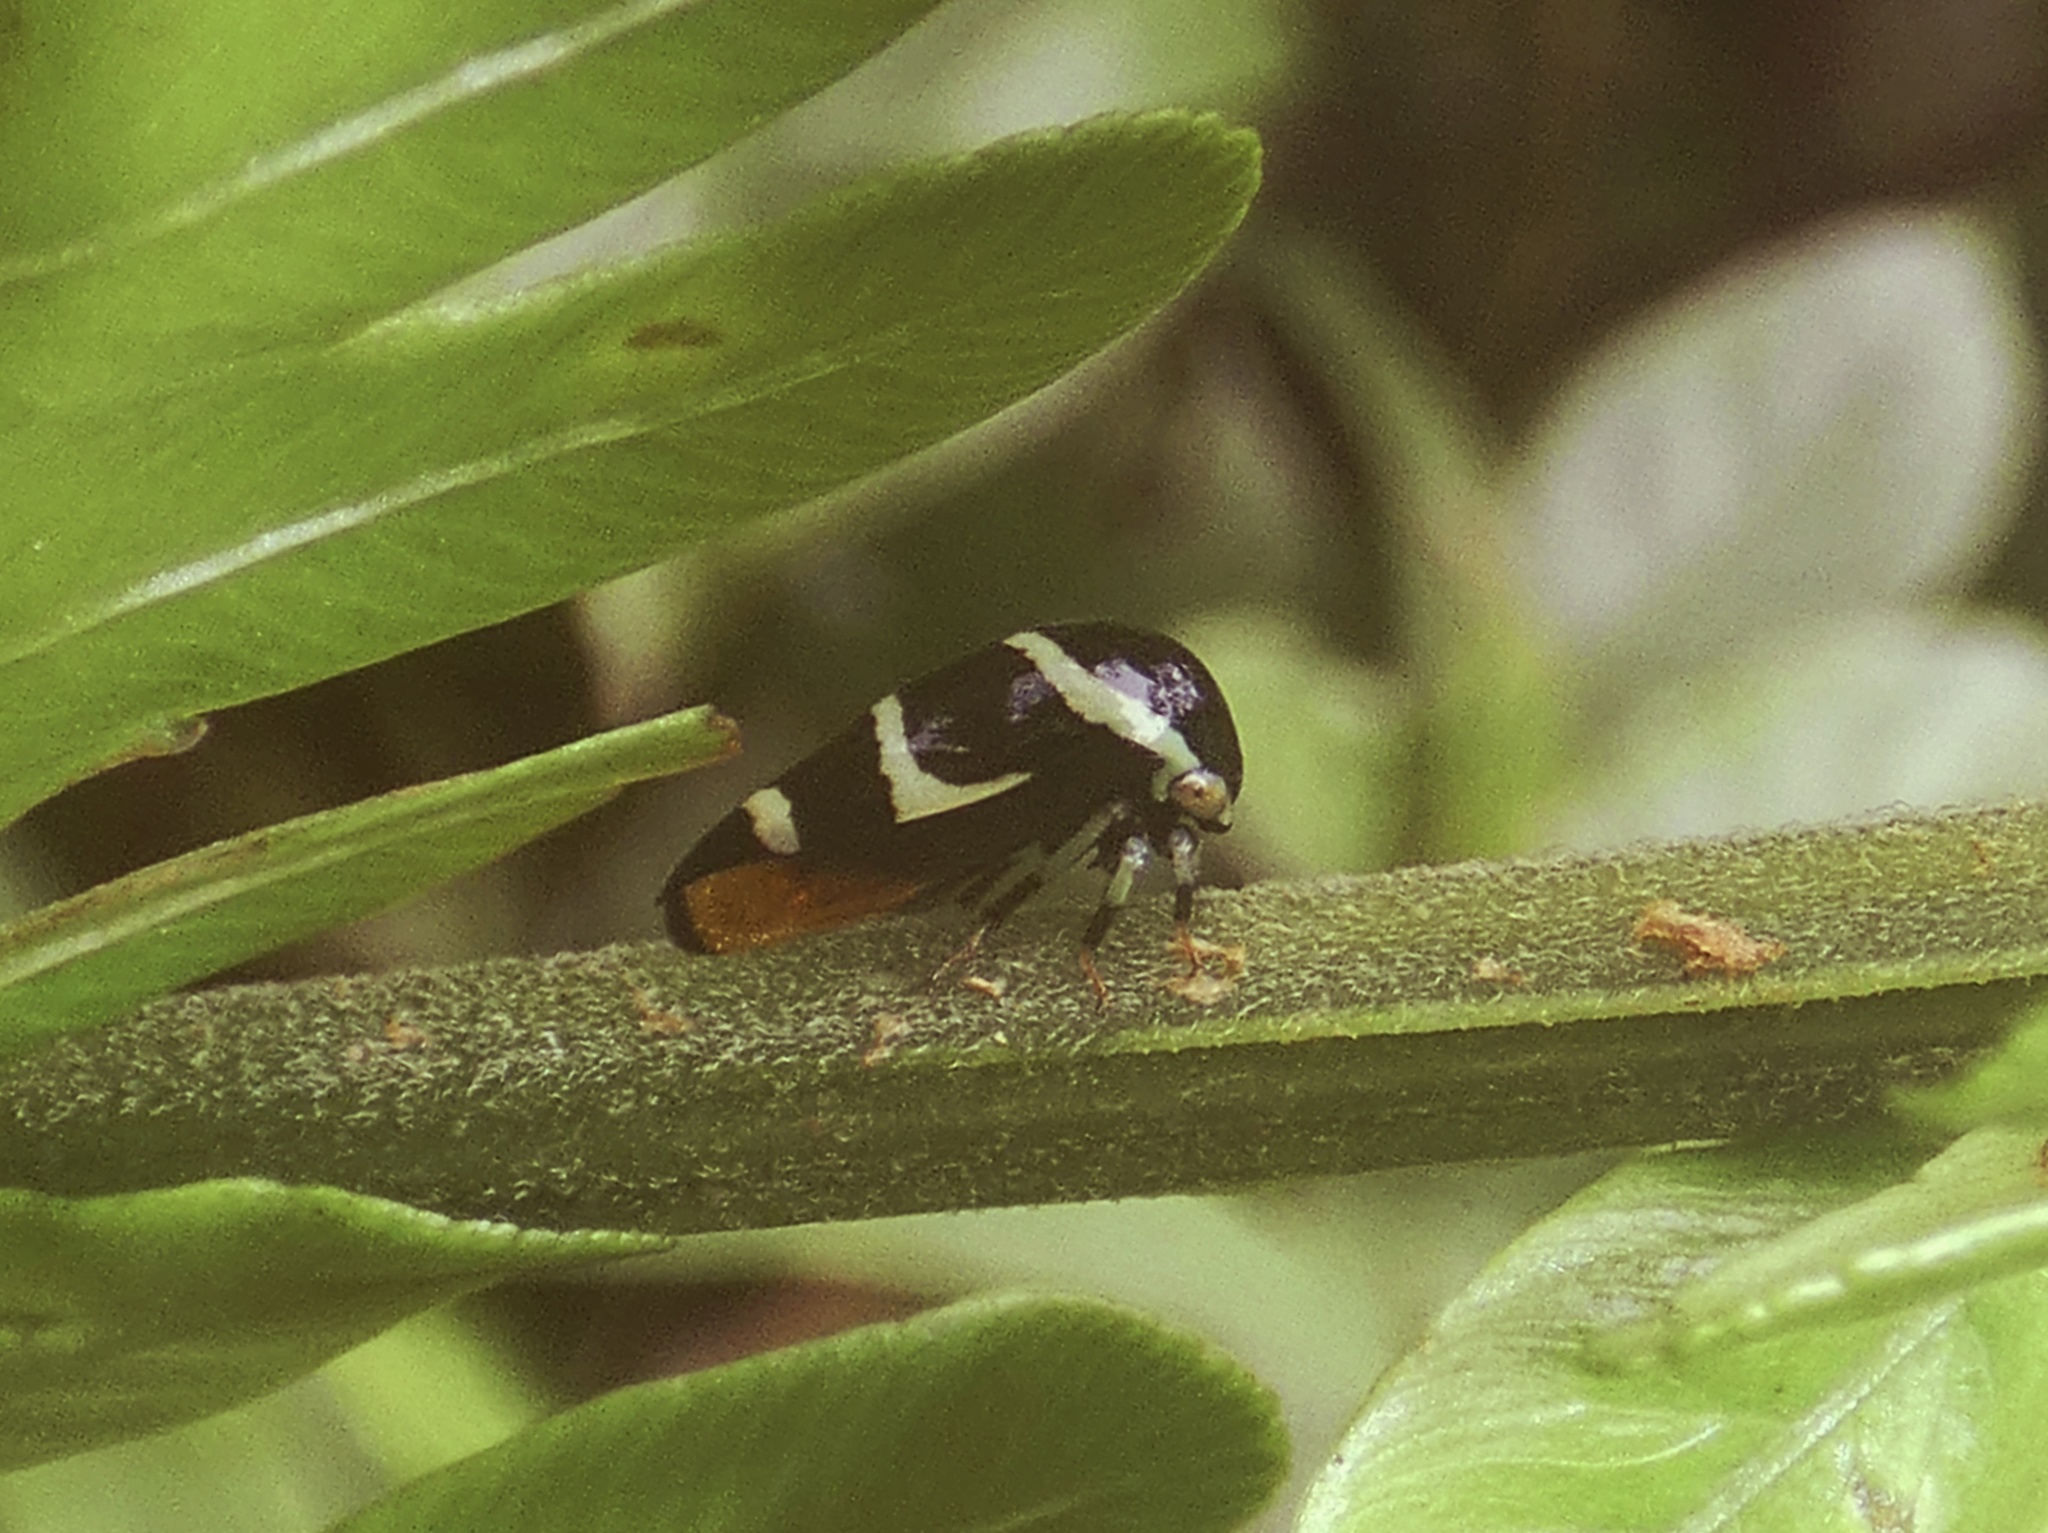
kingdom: Animalia
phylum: Arthropoda
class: Insecta
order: Hemiptera
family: Membracidae
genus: Darnis
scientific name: Darnis partita
